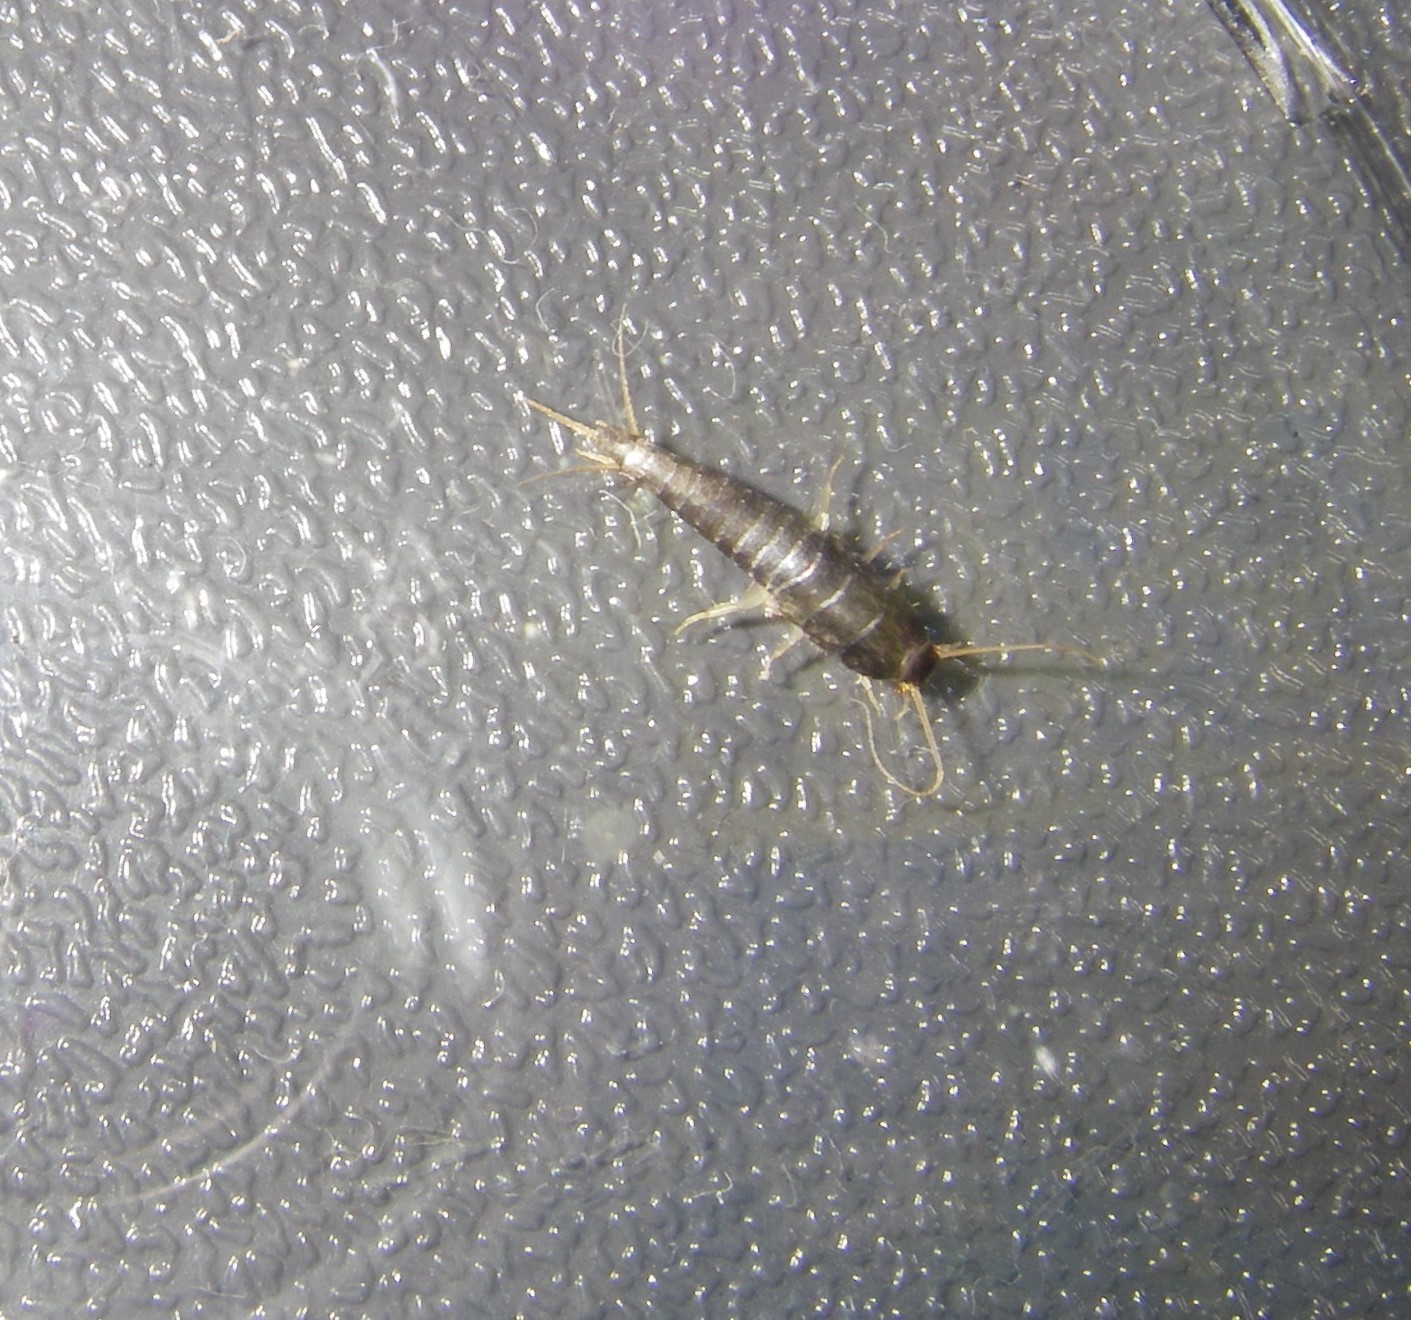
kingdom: Animalia
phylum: Arthropoda
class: Insecta
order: Zygentoma
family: Lepismatidae
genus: Lepisma
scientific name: Lepisma saccharinum
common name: Silverfish
